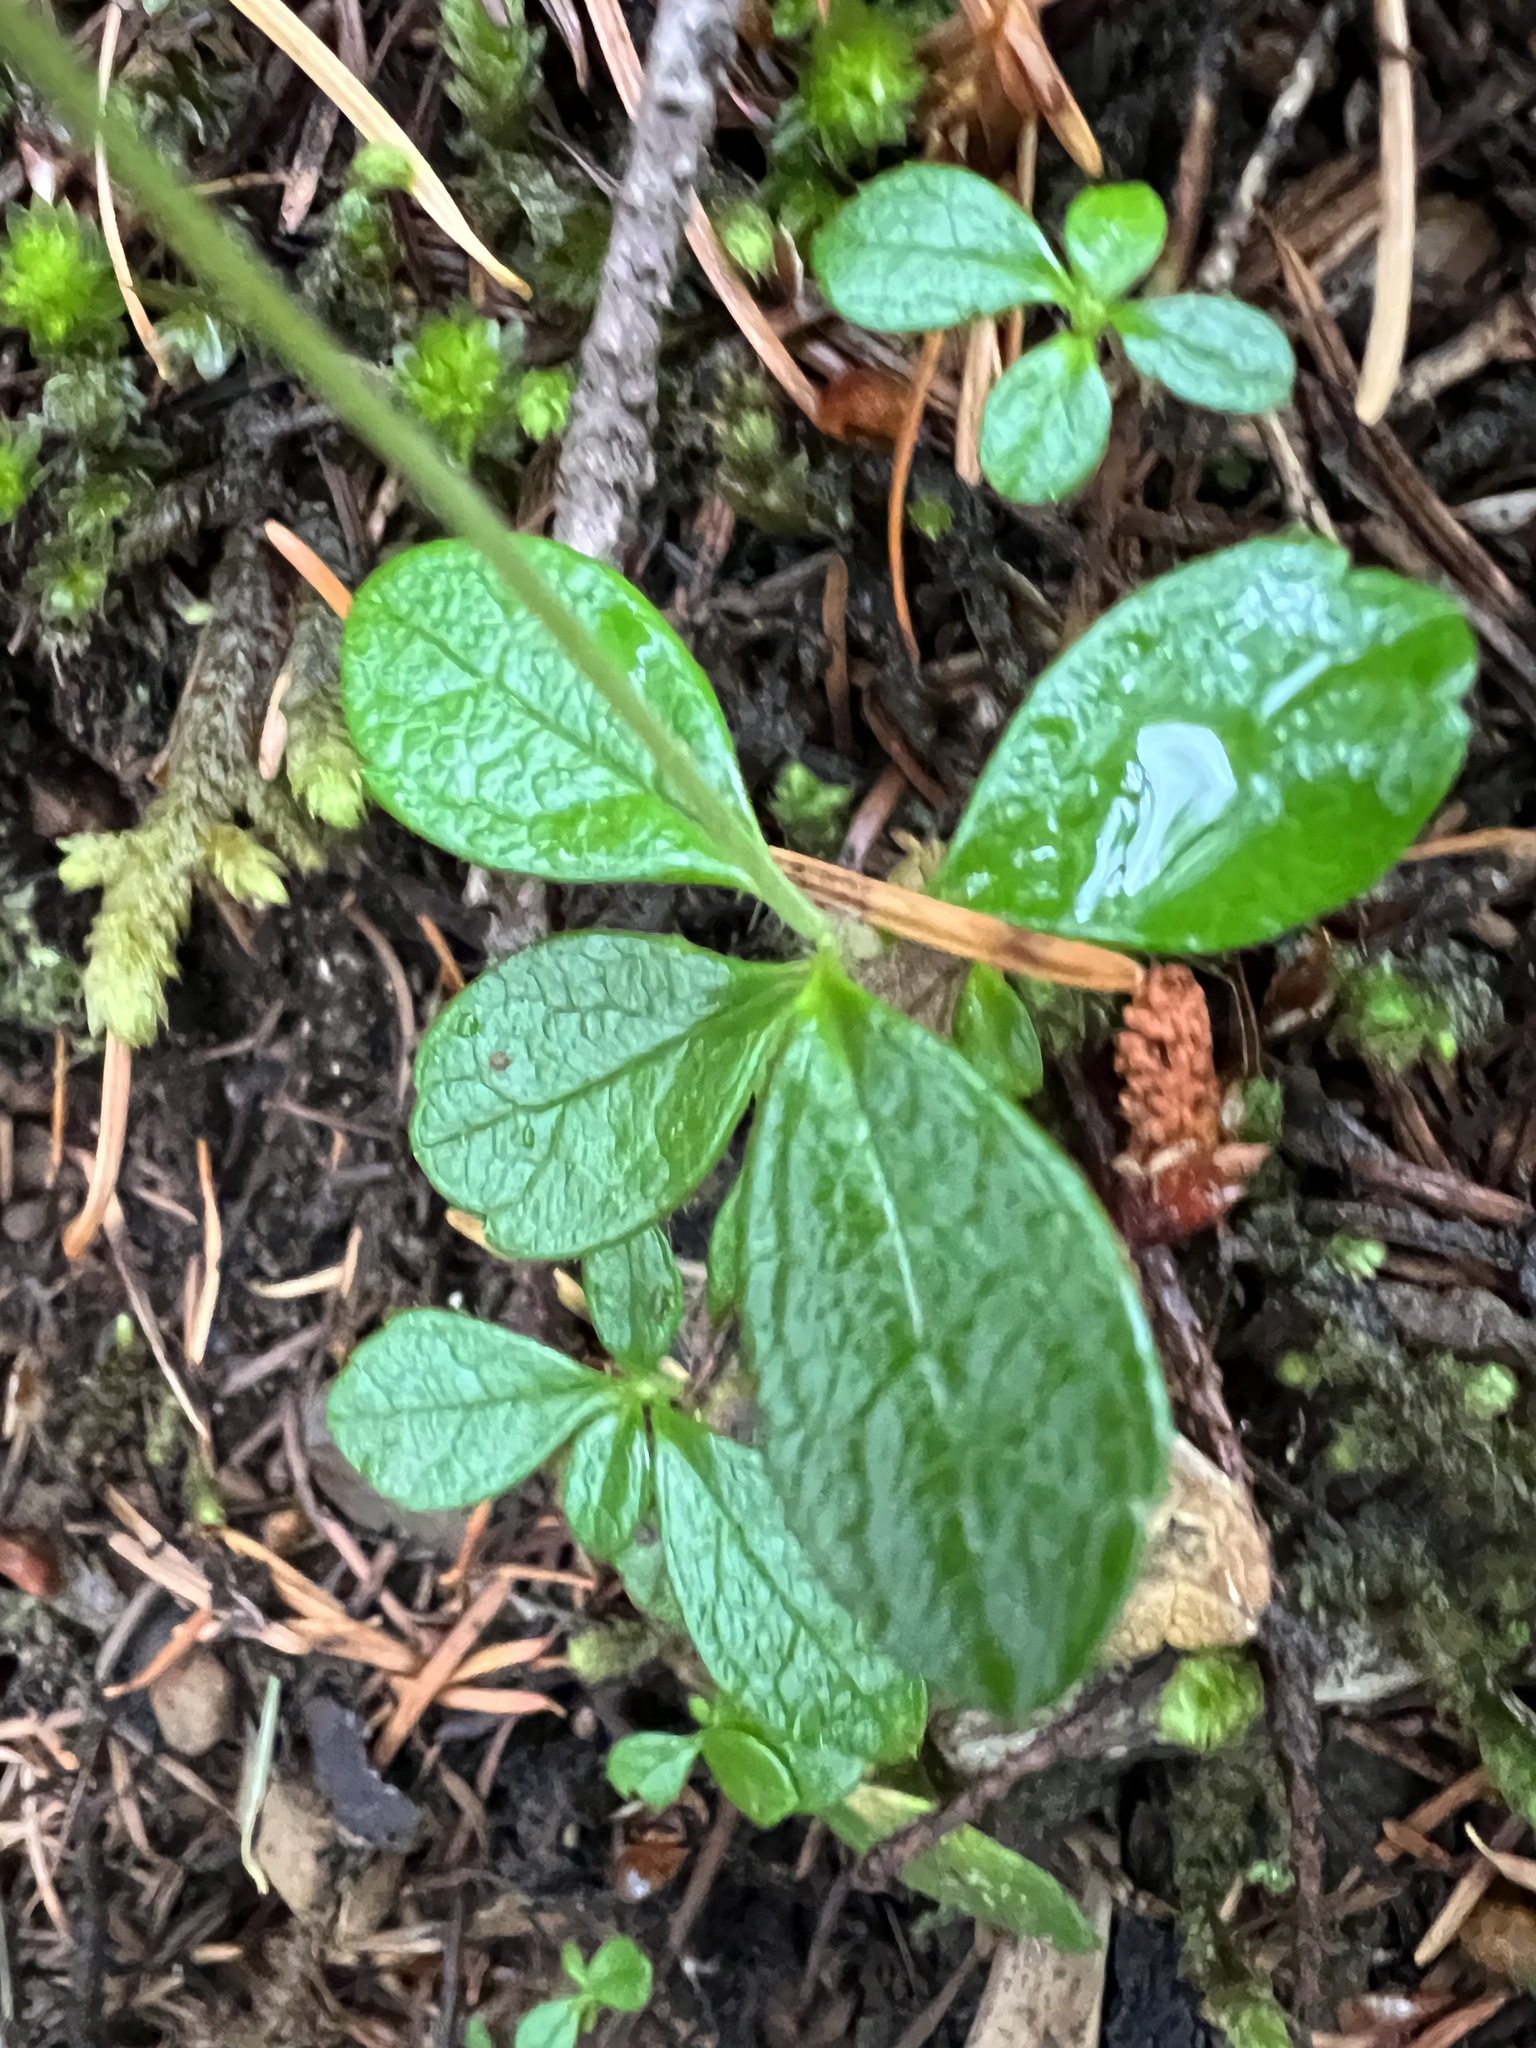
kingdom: Plantae
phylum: Tracheophyta
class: Magnoliopsida
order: Dipsacales
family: Caprifoliaceae
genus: Linnaea
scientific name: Linnaea borealis
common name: Twinflower
